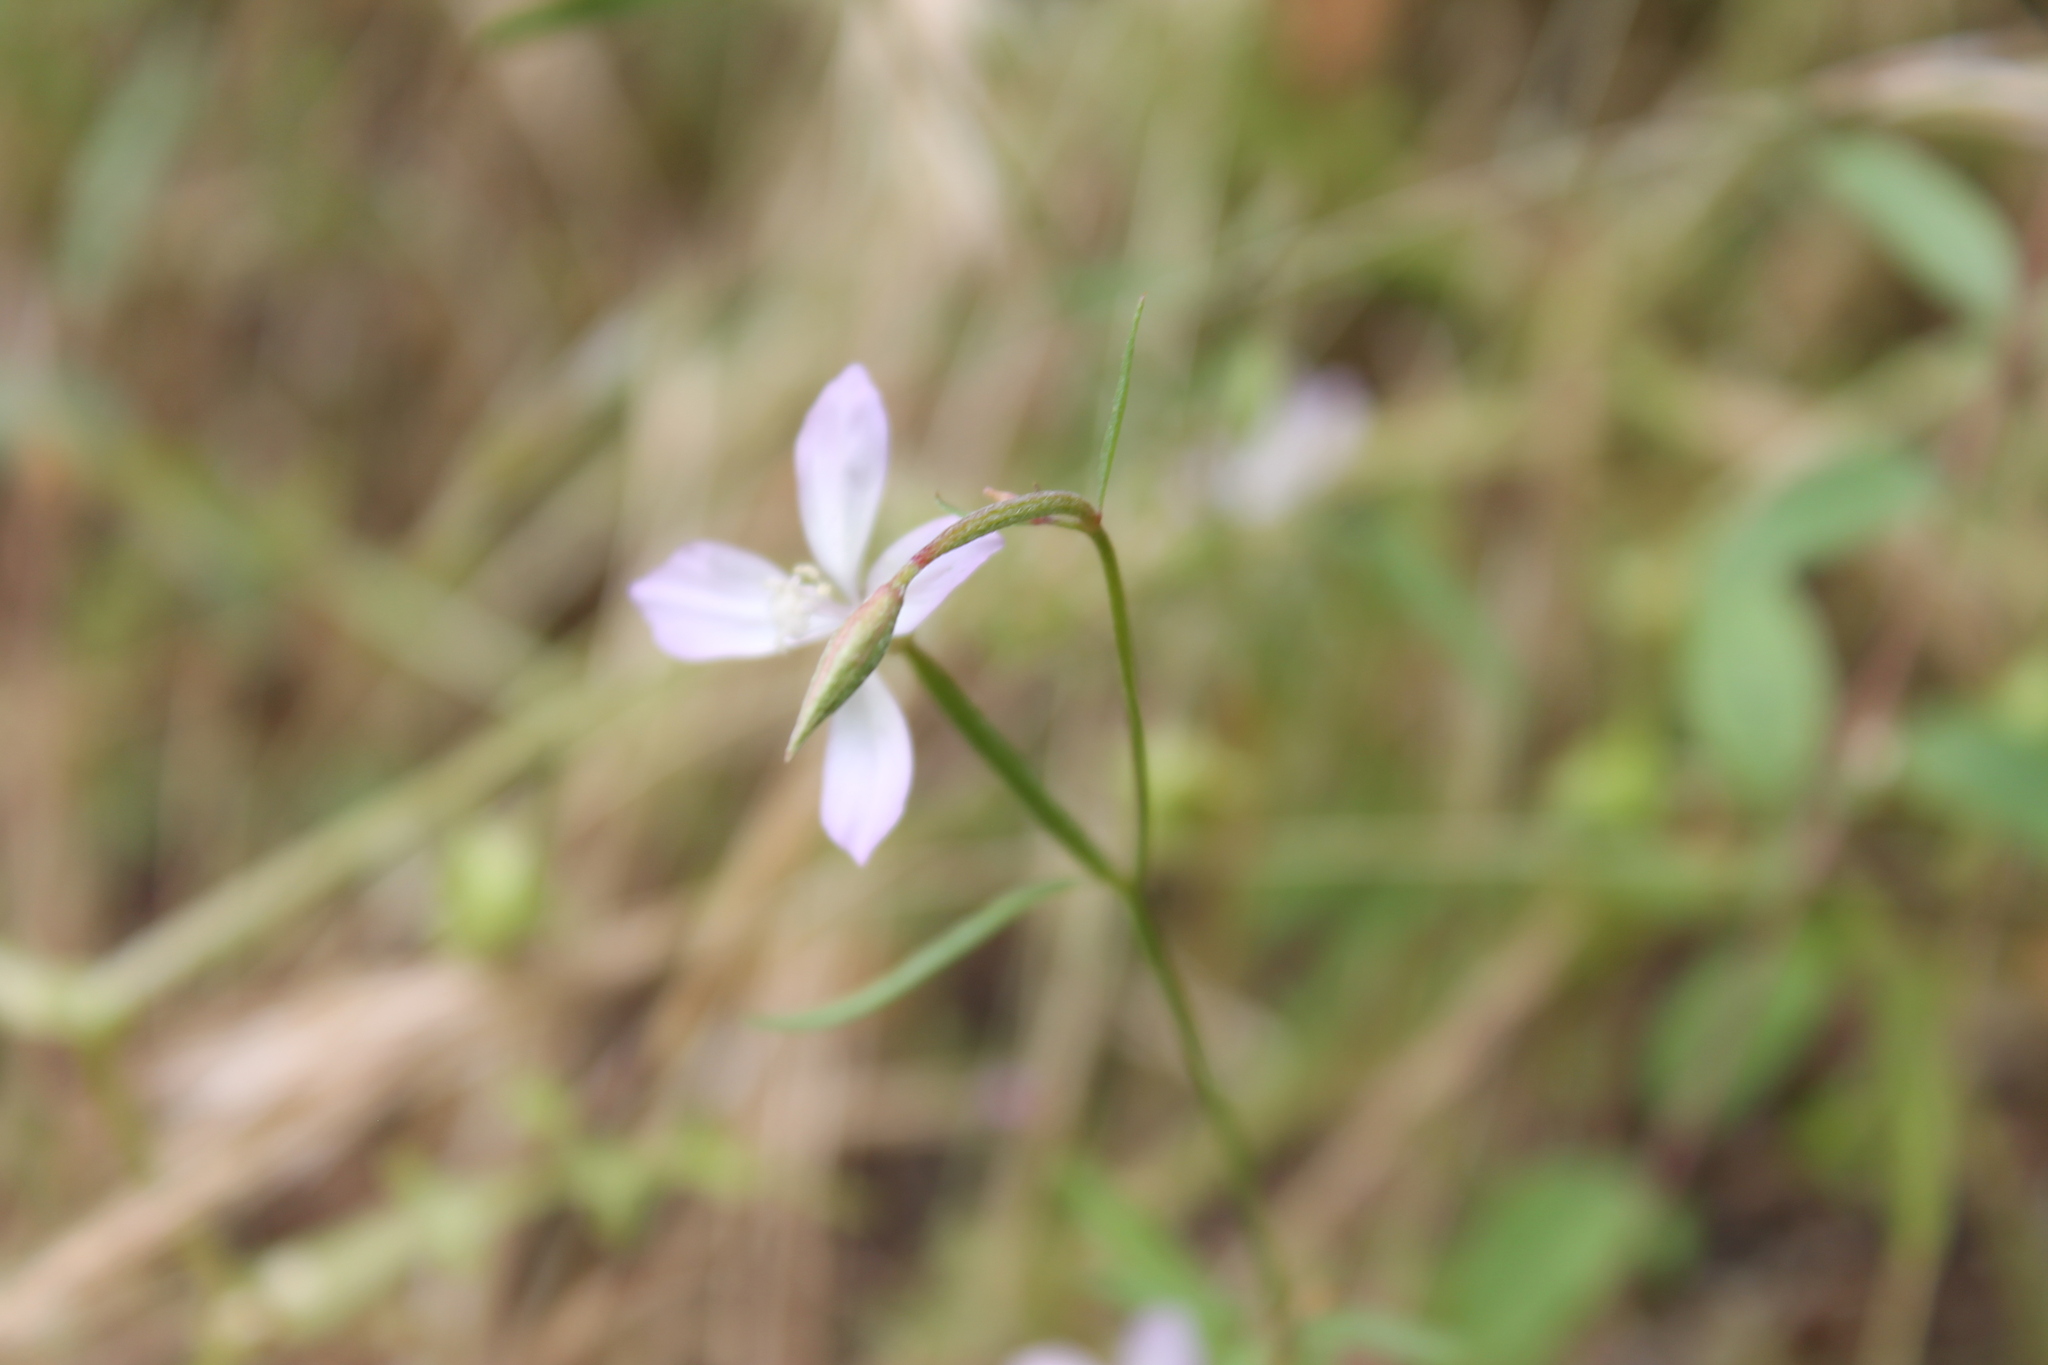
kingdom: Plantae
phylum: Tracheophyta
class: Magnoliopsida
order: Myrtales
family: Onagraceae
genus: Clarkia
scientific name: Clarkia epilobioides
